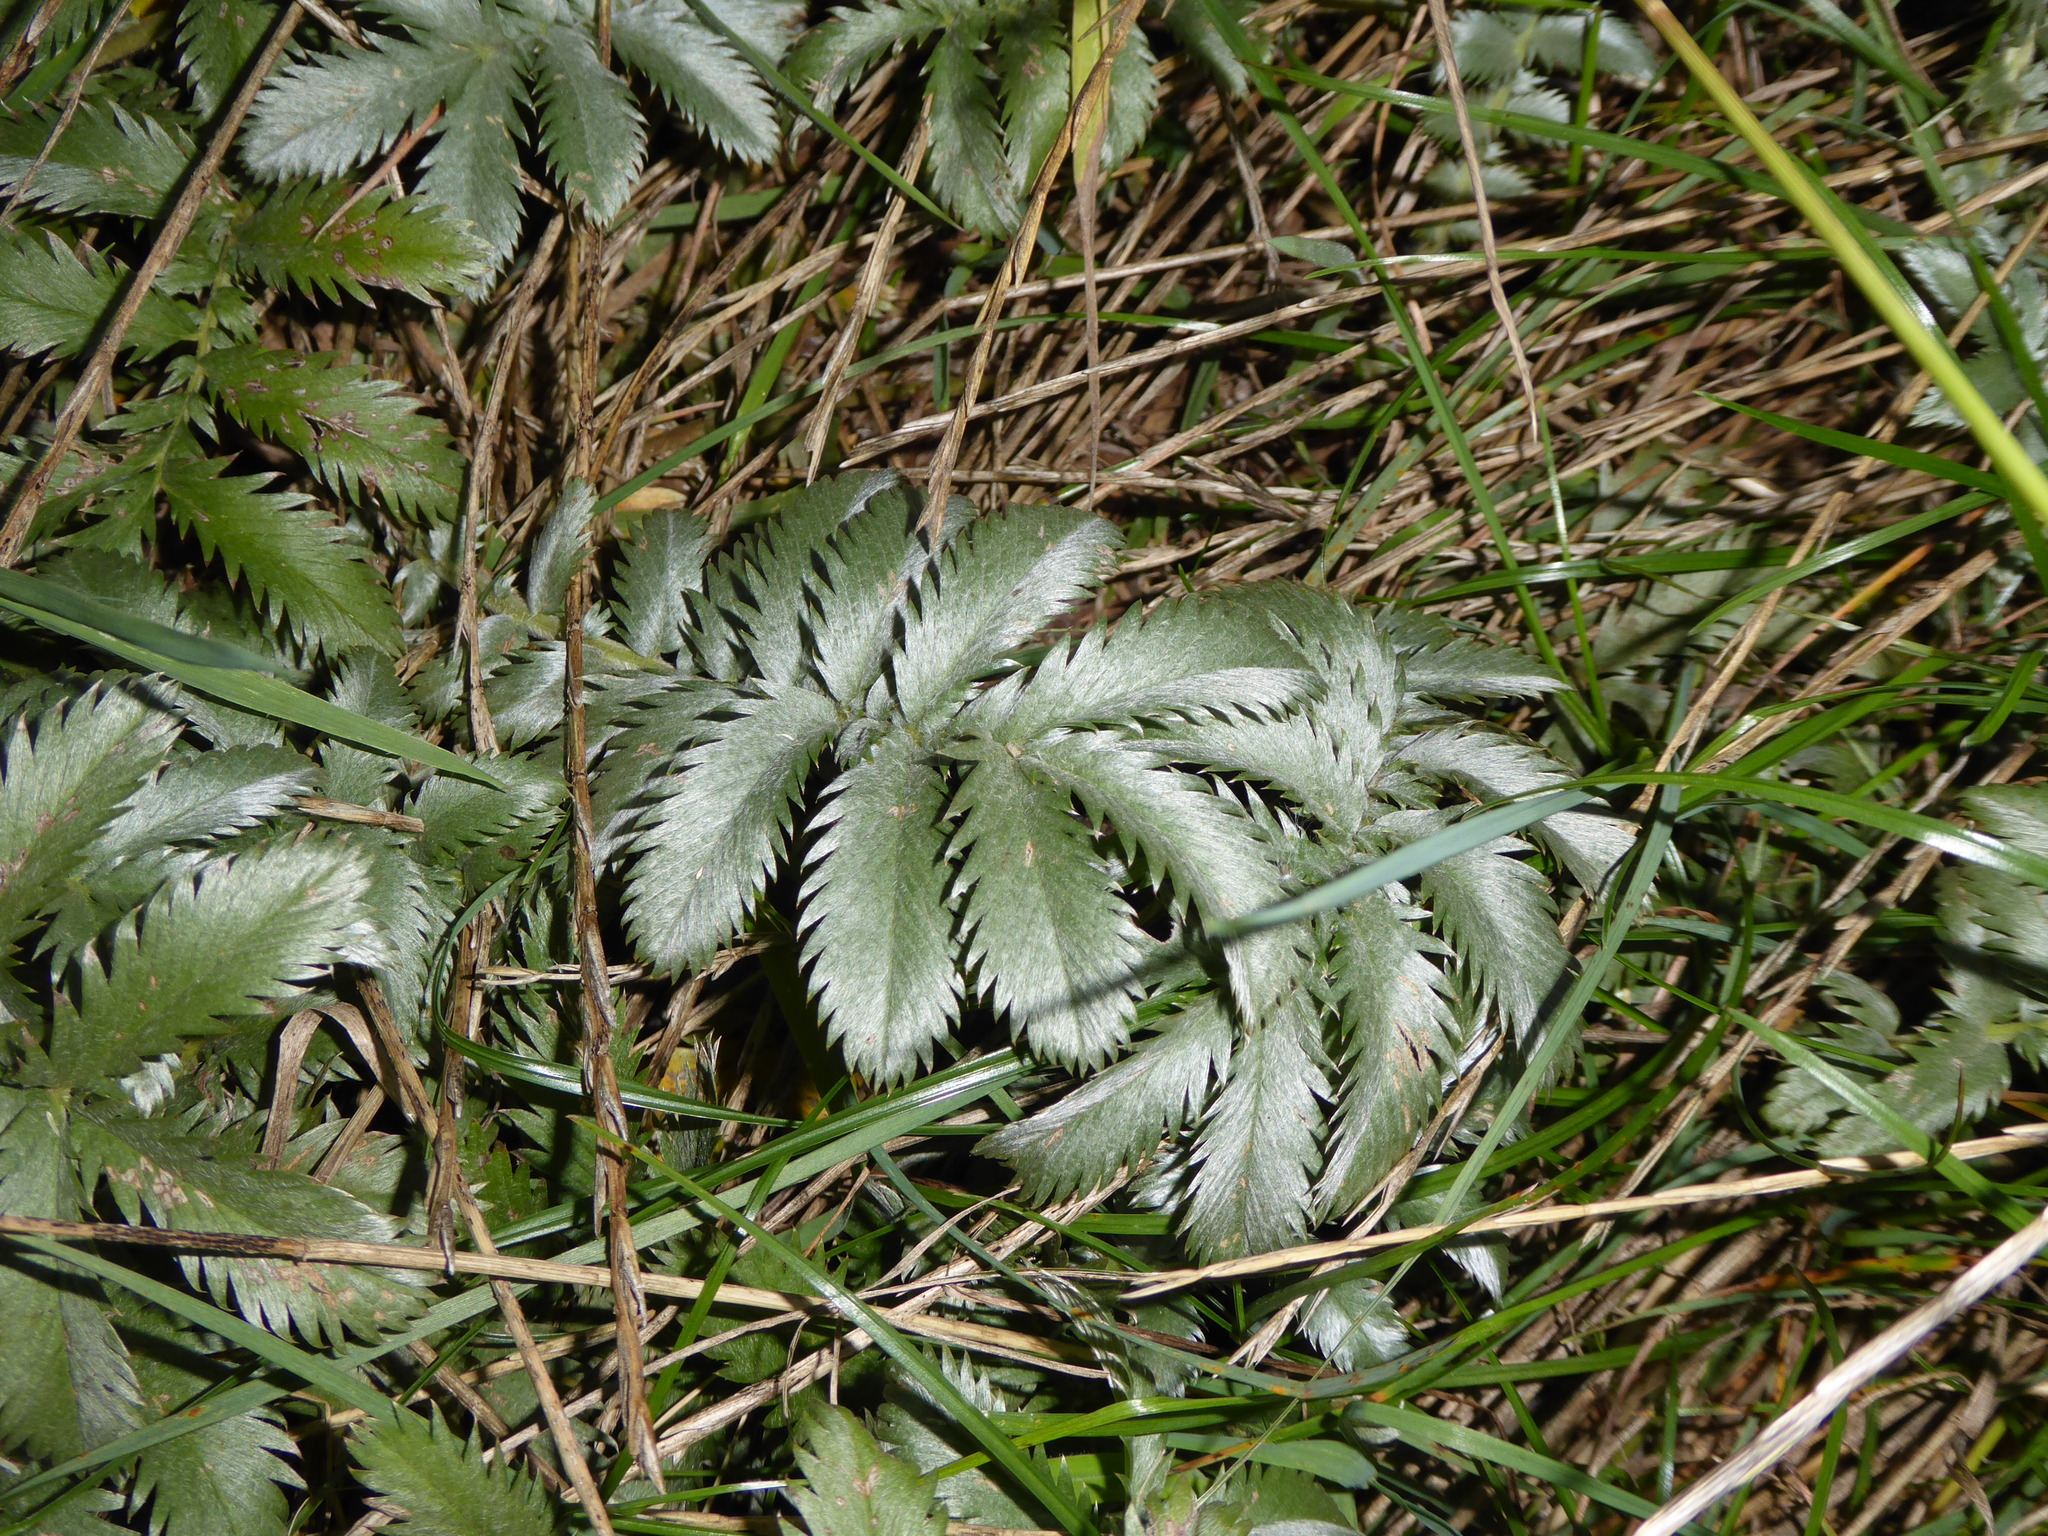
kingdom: Plantae
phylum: Tracheophyta
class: Magnoliopsida
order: Rosales
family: Rosaceae
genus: Argentina
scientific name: Argentina anserina
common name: Common silverweed
